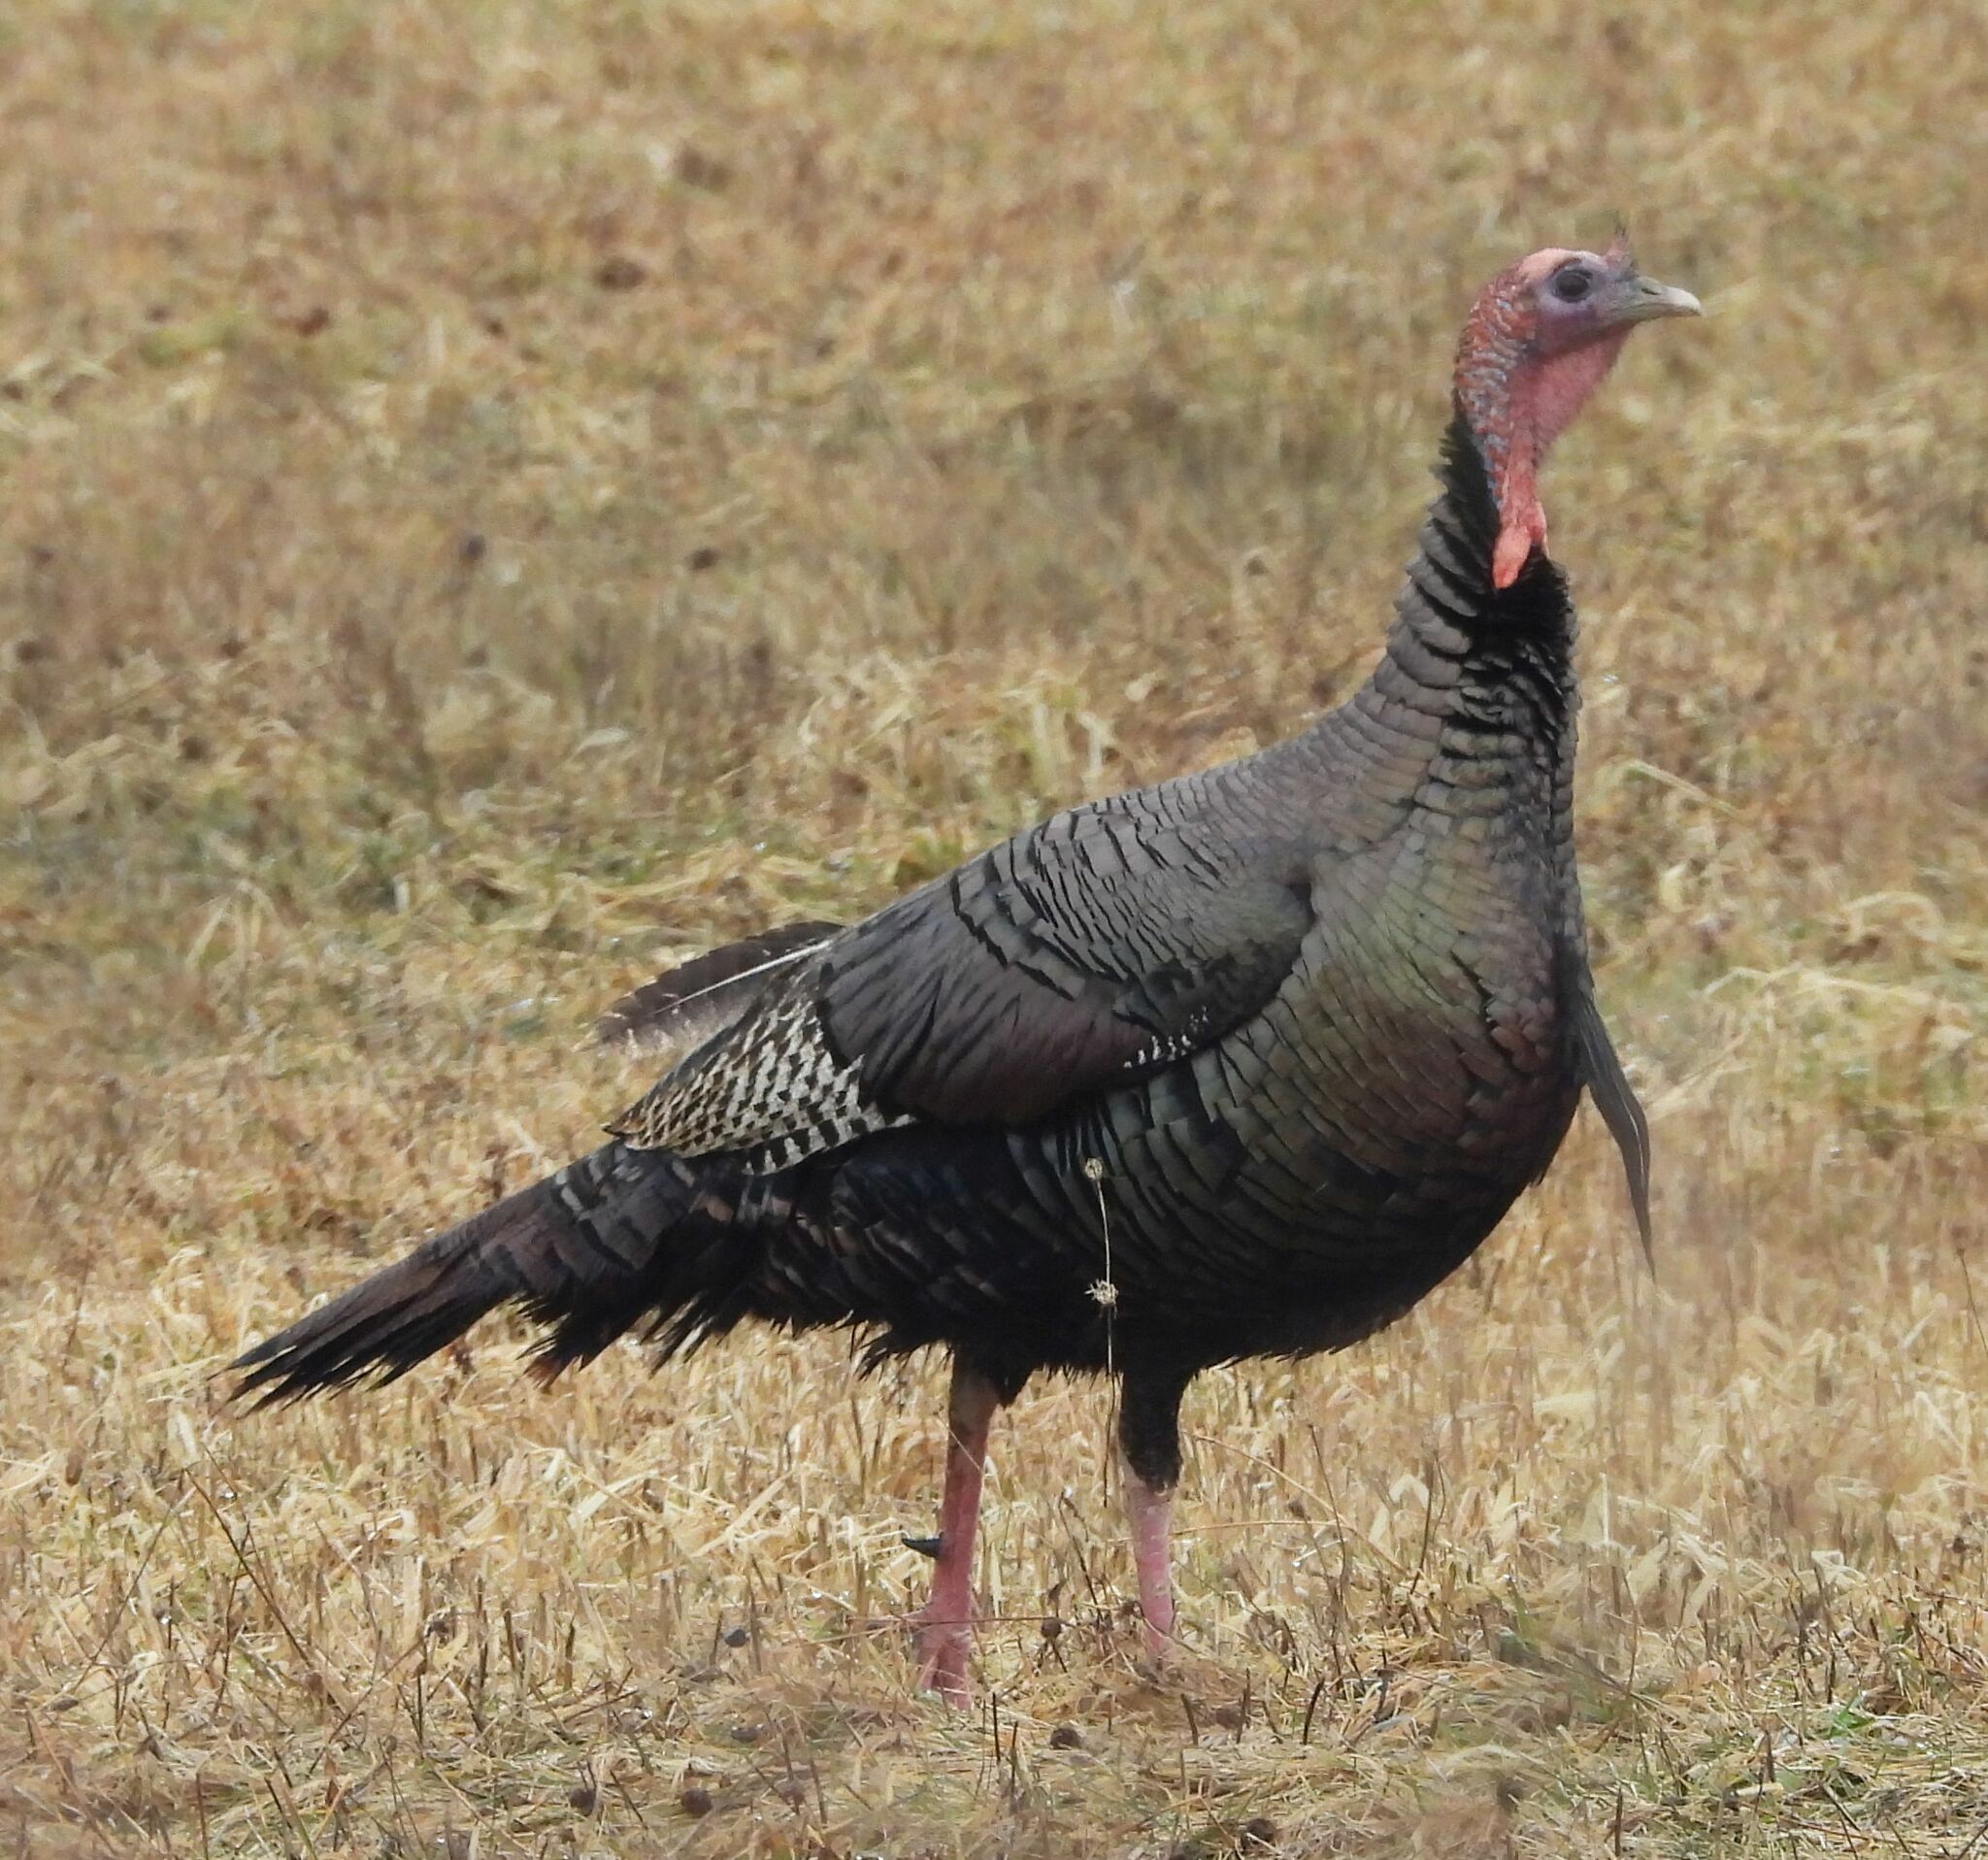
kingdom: Animalia
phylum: Chordata
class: Aves
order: Galliformes
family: Phasianidae
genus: Meleagris
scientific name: Meleagris gallopavo
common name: Wild turkey
